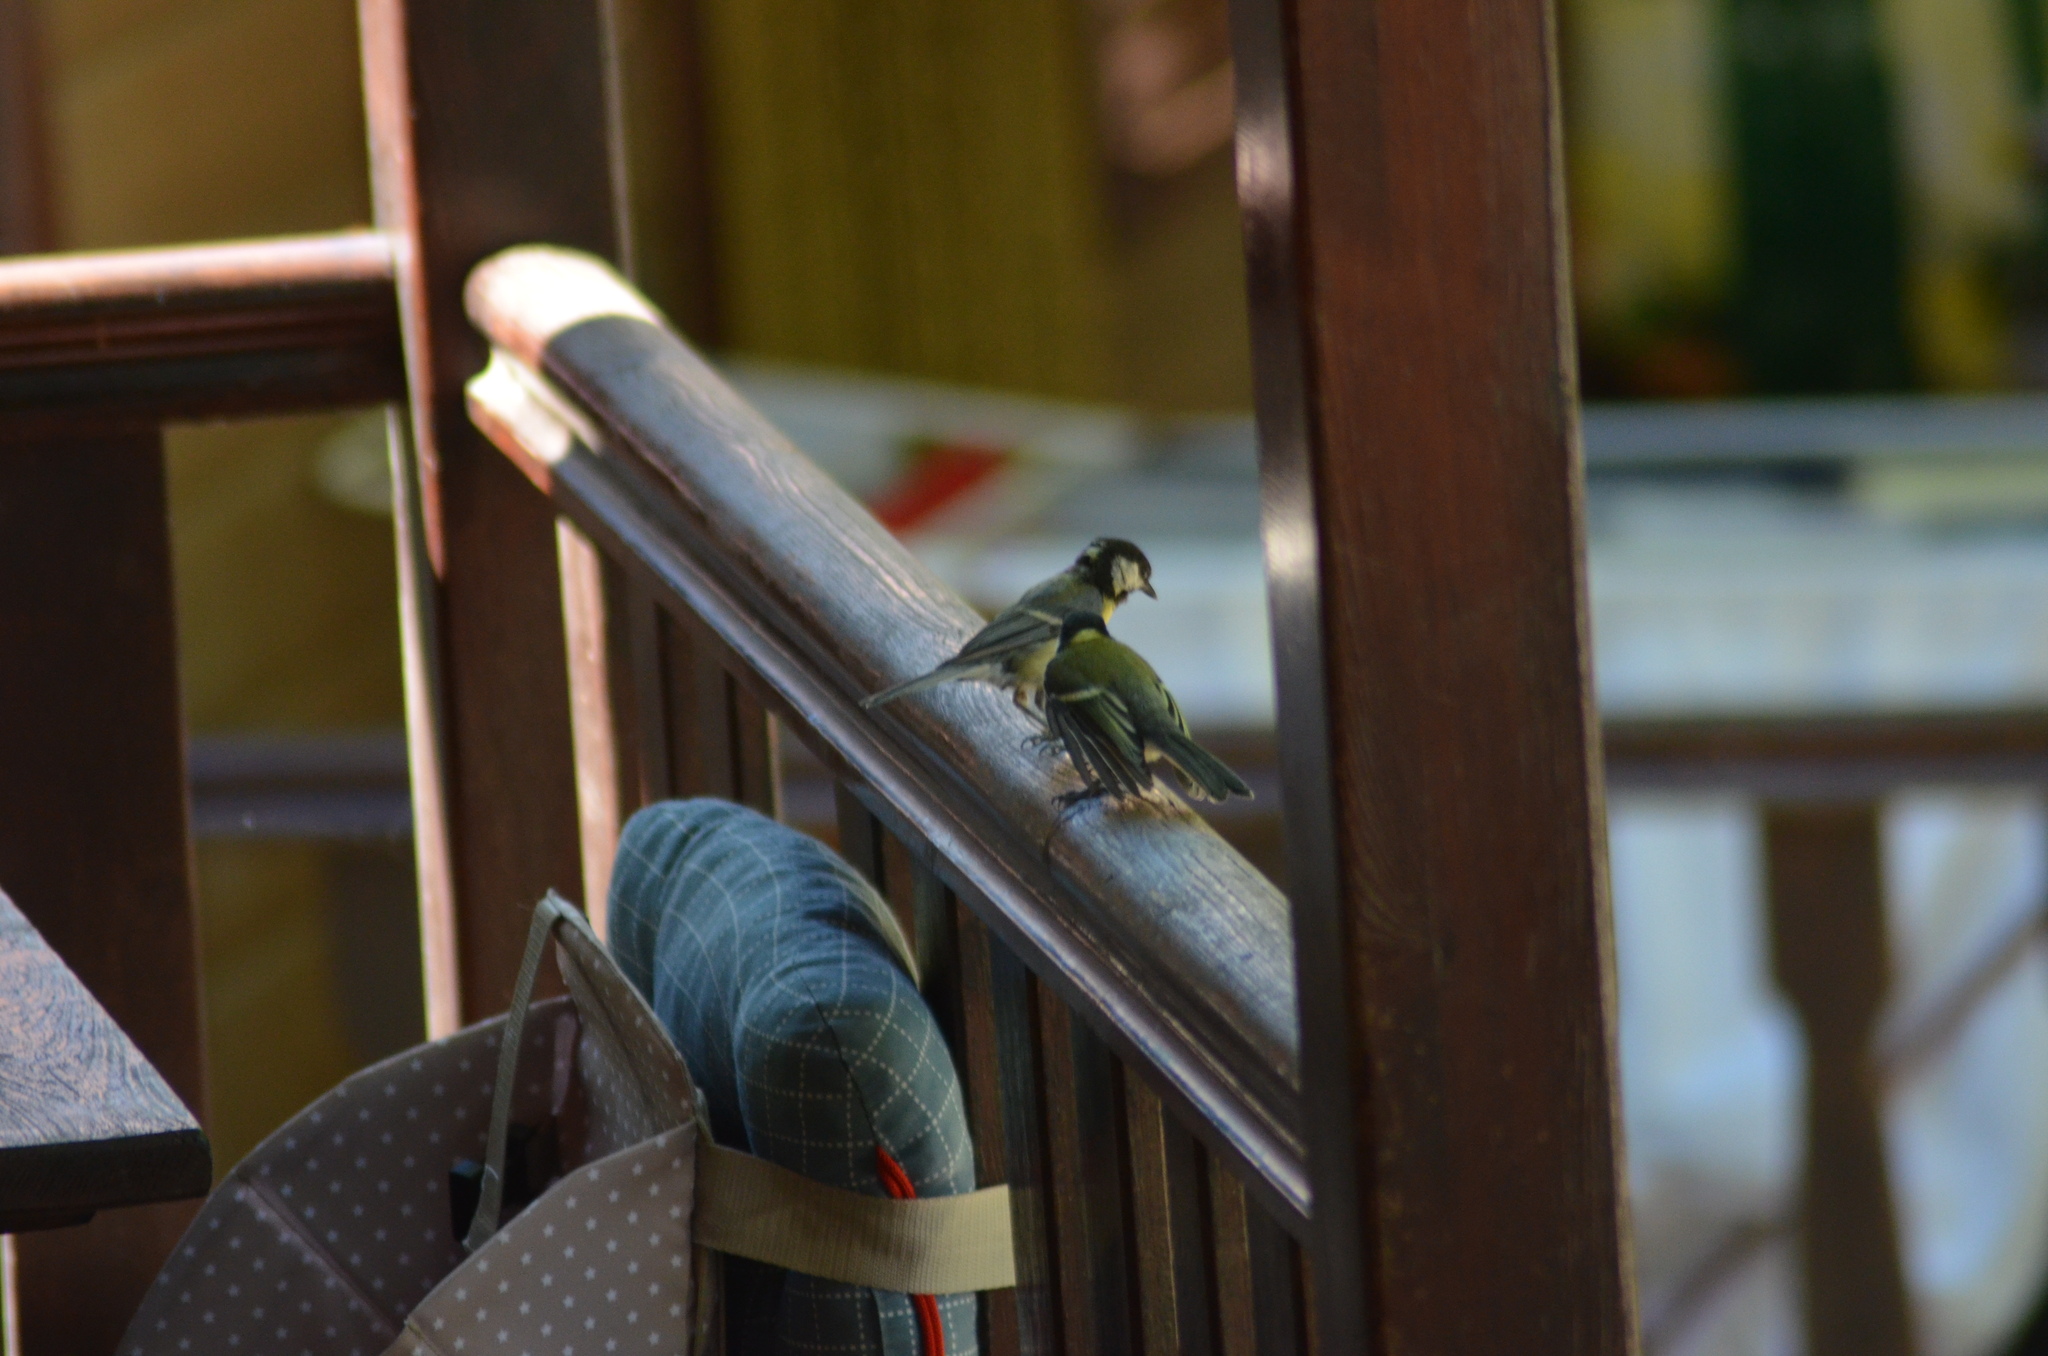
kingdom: Animalia
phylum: Chordata
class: Aves
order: Passeriformes
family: Paridae
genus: Parus
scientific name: Parus major
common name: Great tit
